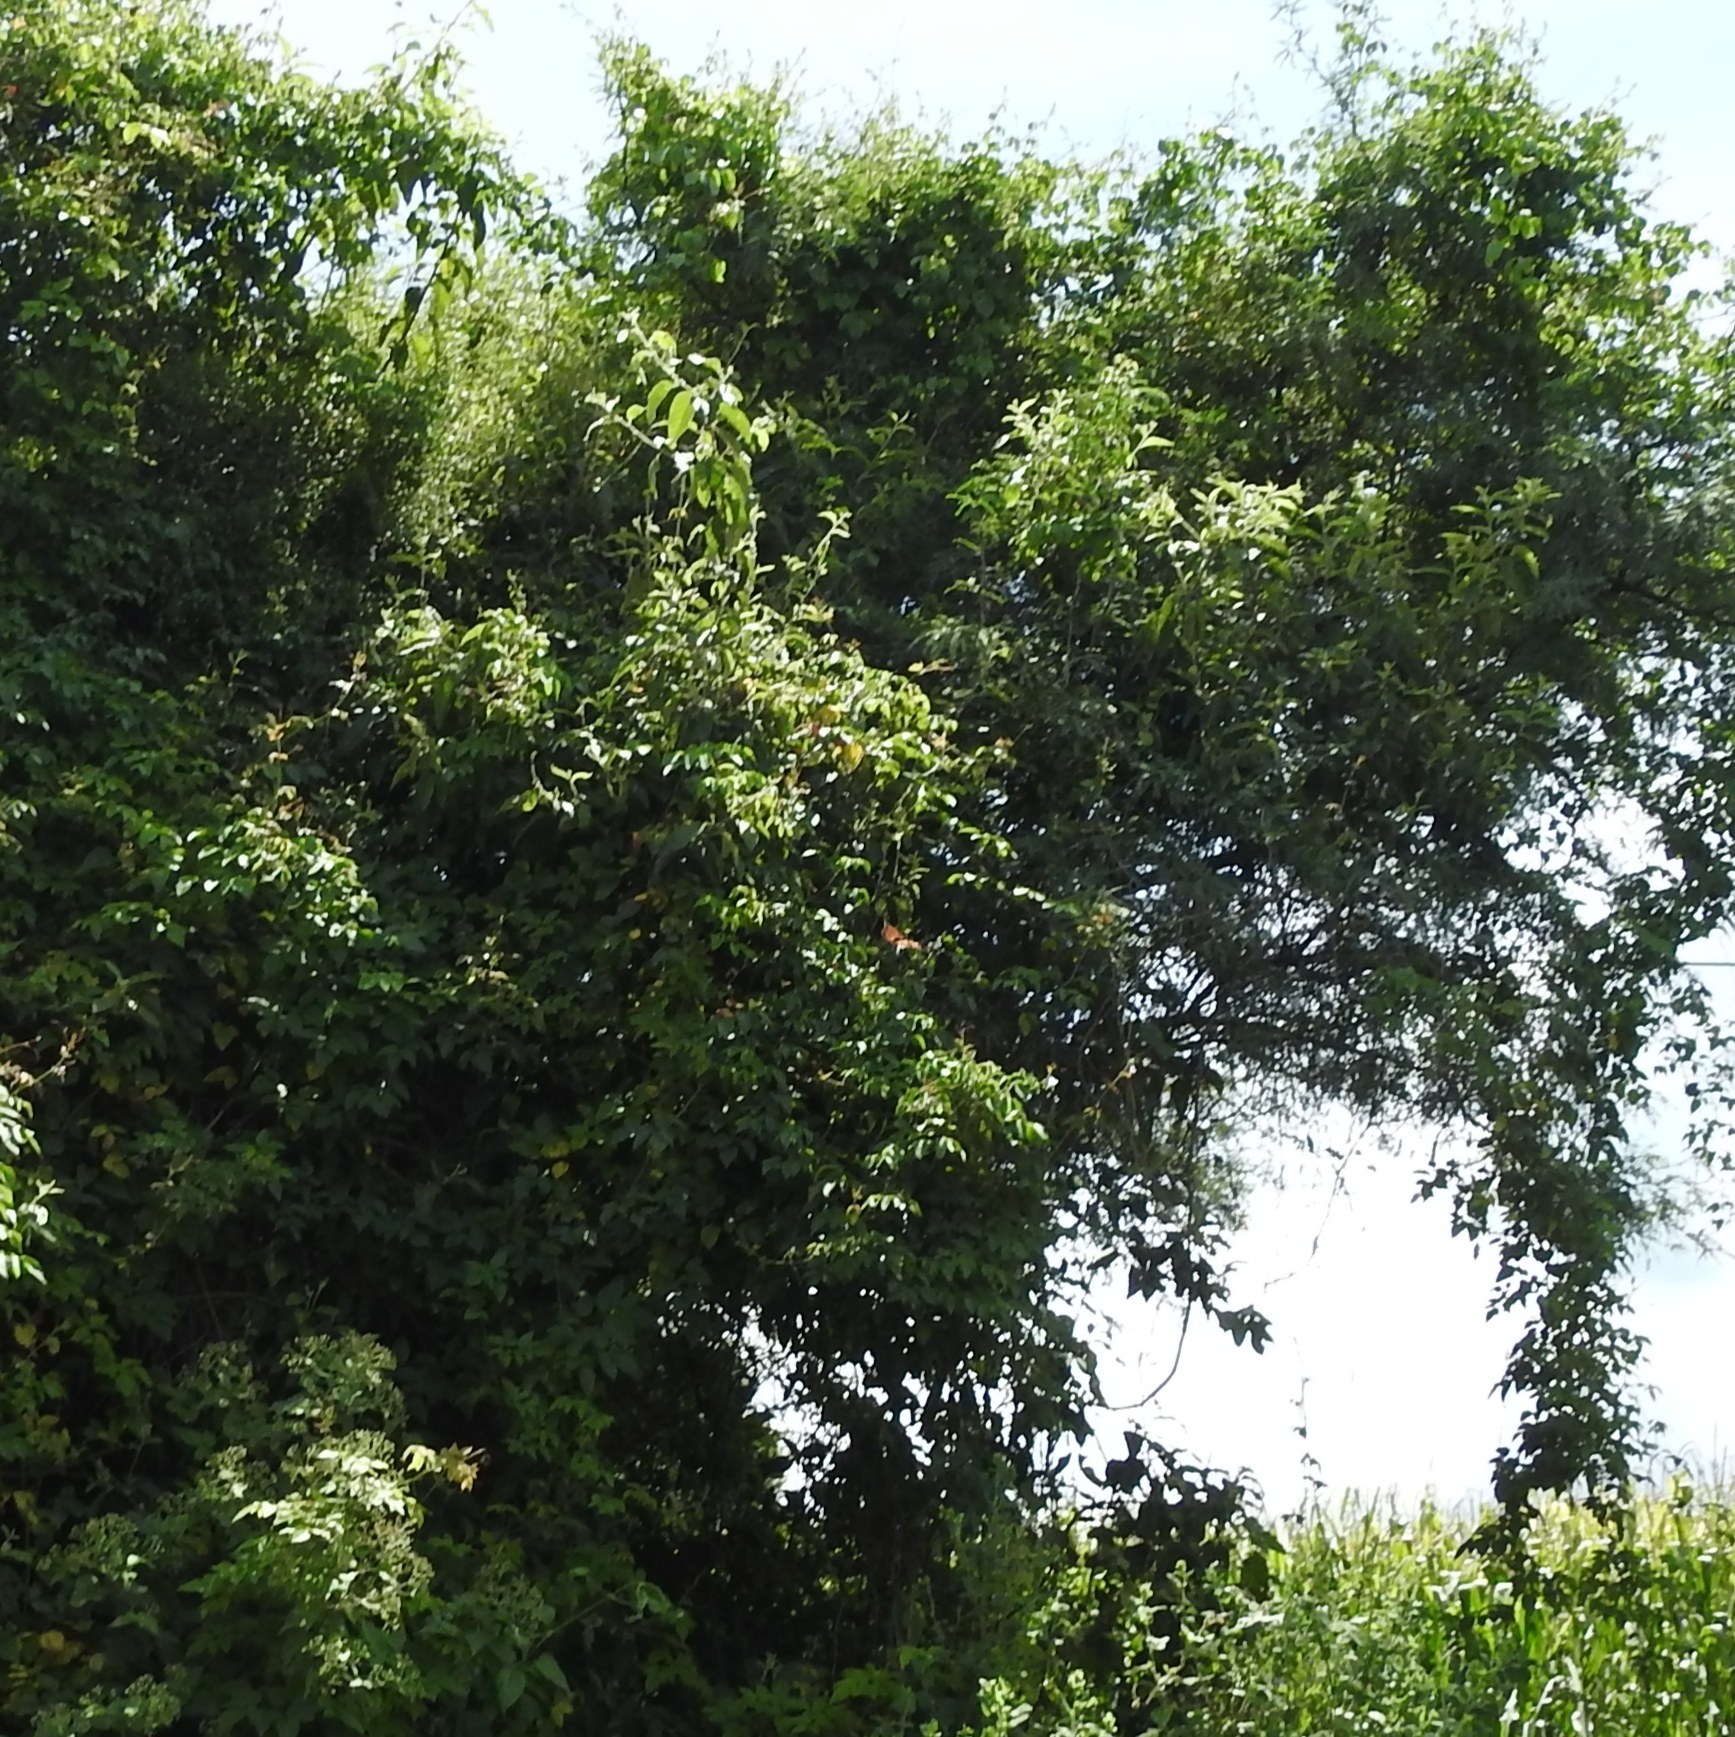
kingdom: Animalia
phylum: Arthropoda
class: Insecta
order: Lepidoptera
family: Nymphalidae
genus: Danaus
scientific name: Danaus plexippus
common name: Monarch
